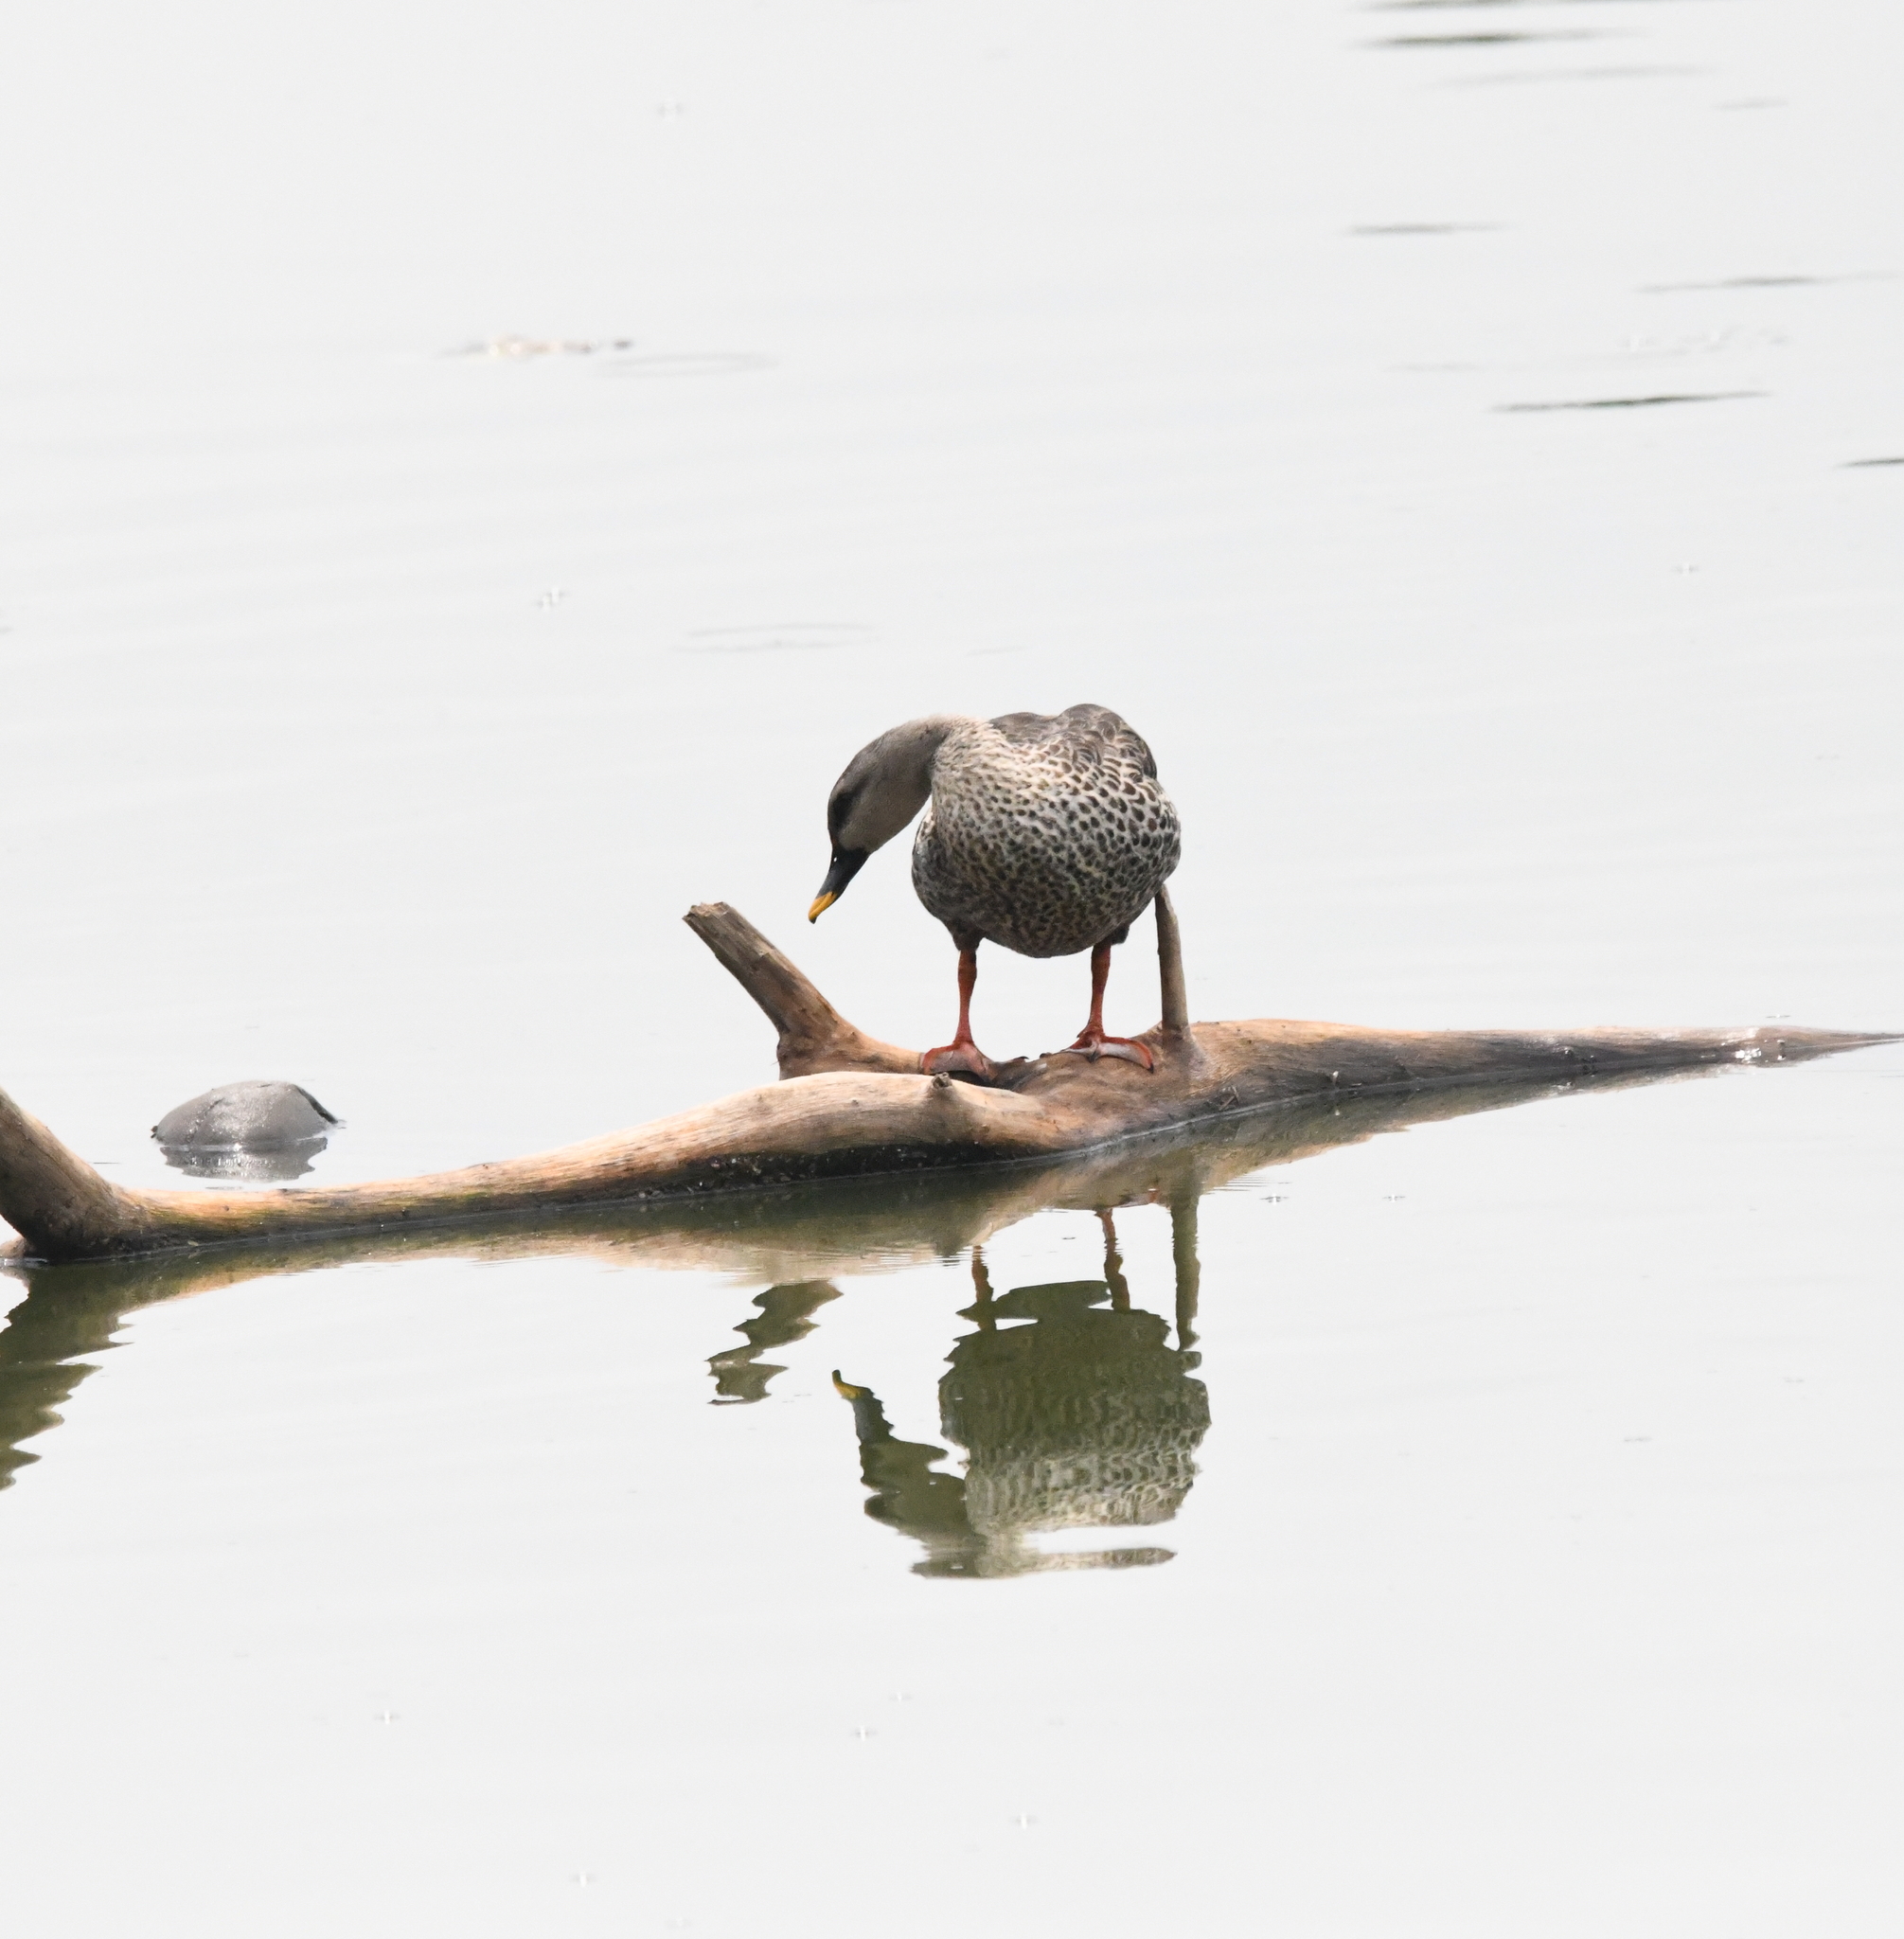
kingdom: Animalia
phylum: Chordata
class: Aves
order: Anseriformes
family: Anatidae
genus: Anas
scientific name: Anas poecilorhyncha
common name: Indian spot-billed duck
